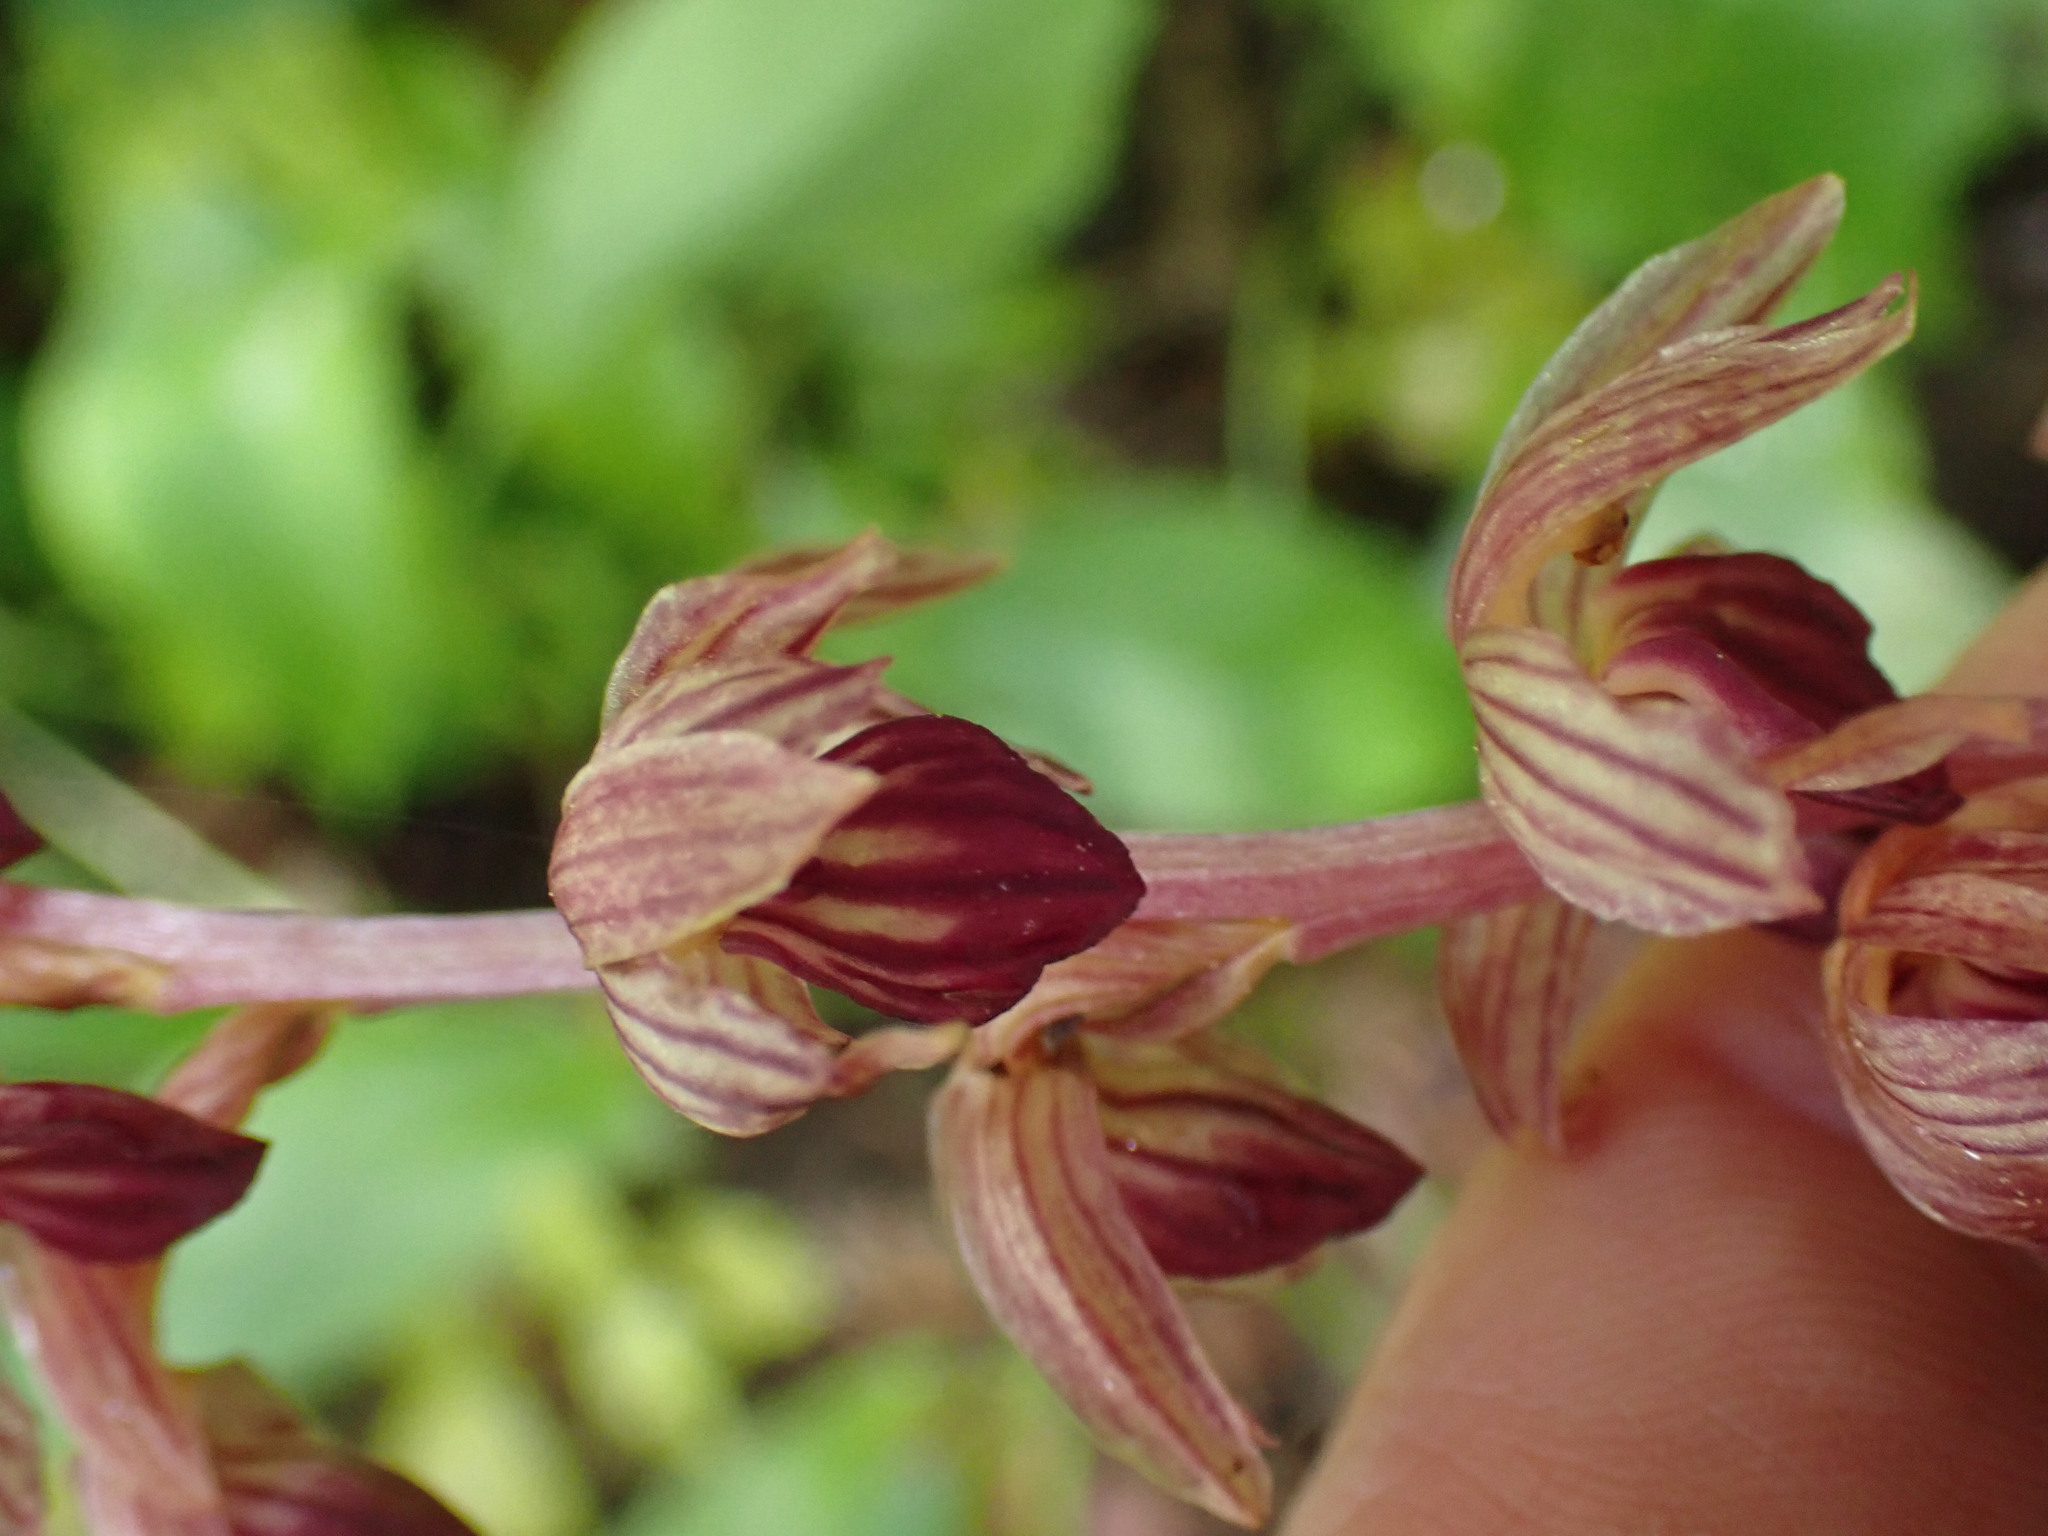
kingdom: Plantae
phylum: Tracheophyta
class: Liliopsida
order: Asparagales
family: Orchidaceae
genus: Corallorhiza
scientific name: Corallorhiza striata
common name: Hooded coralroot
